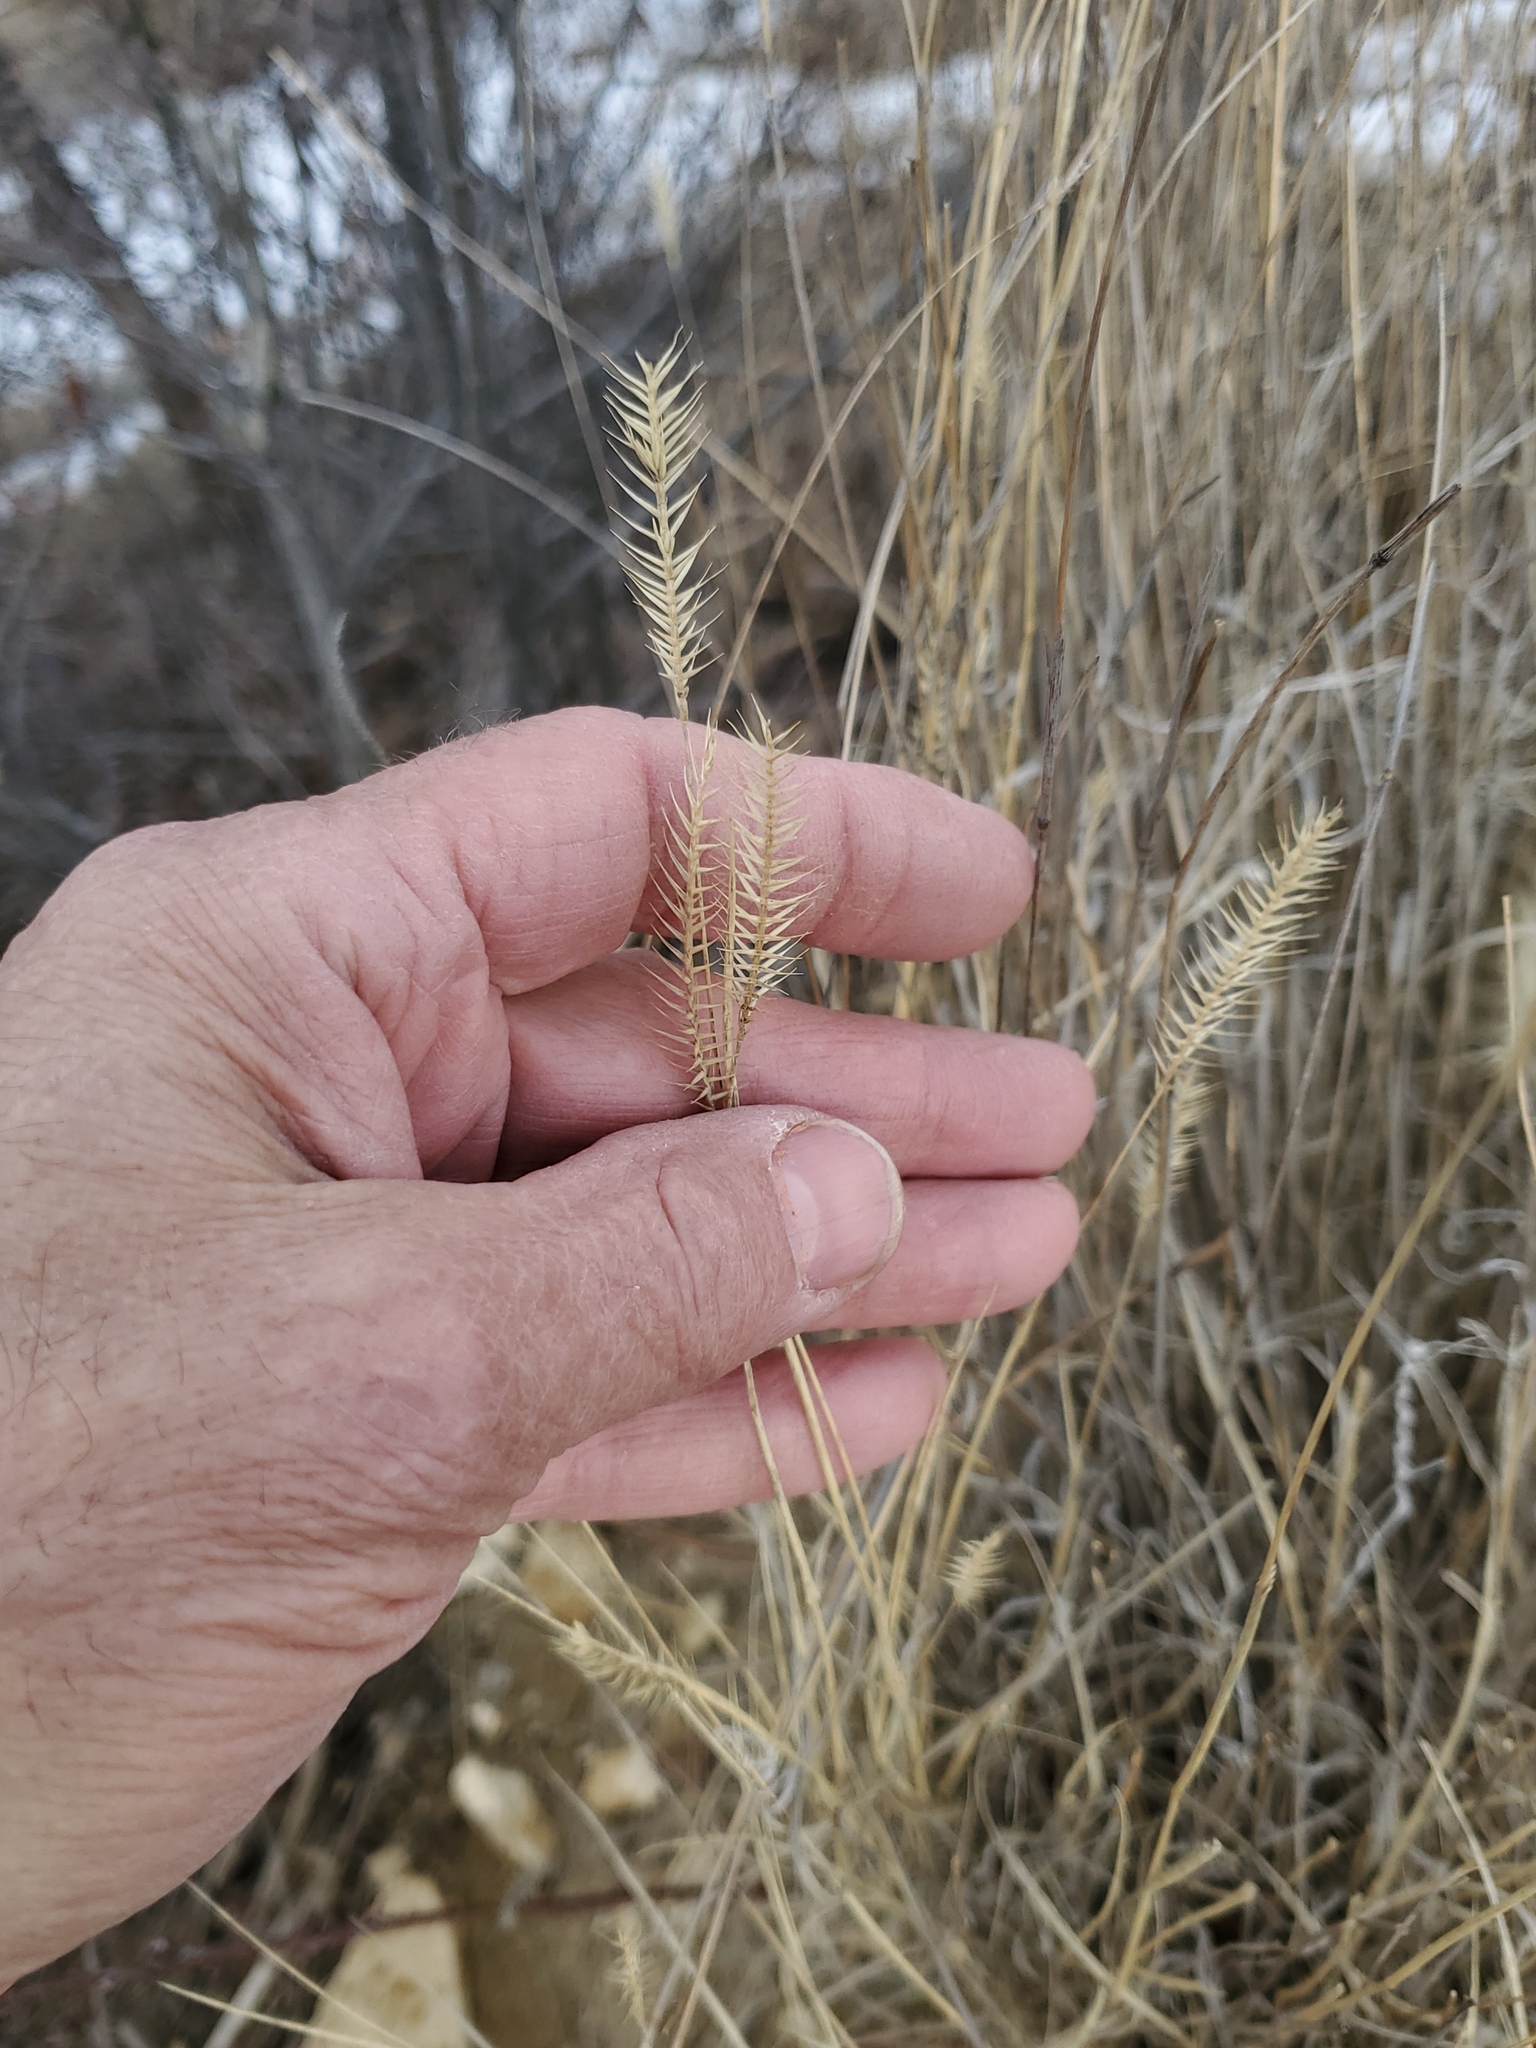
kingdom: Plantae
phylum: Tracheophyta
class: Liliopsida
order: Poales
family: Poaceae
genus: Agropyron
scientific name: Agropyron cristatum
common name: Crested wheatgrass
